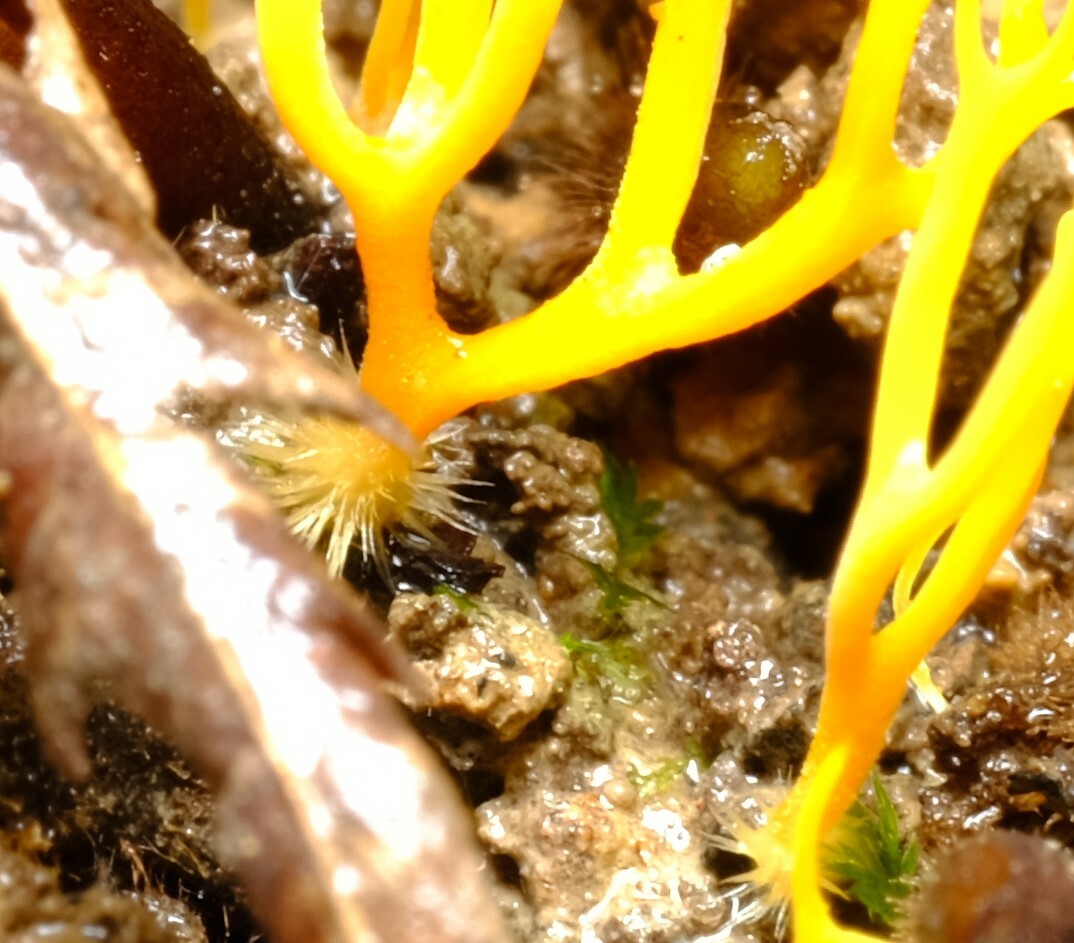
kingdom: Fungi
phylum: Basidiomycota
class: Agaricomycetes
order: Agaricales
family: Clavariaceae
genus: Ramariopsis
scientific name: Ramariopsis crocea
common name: Orange coral
